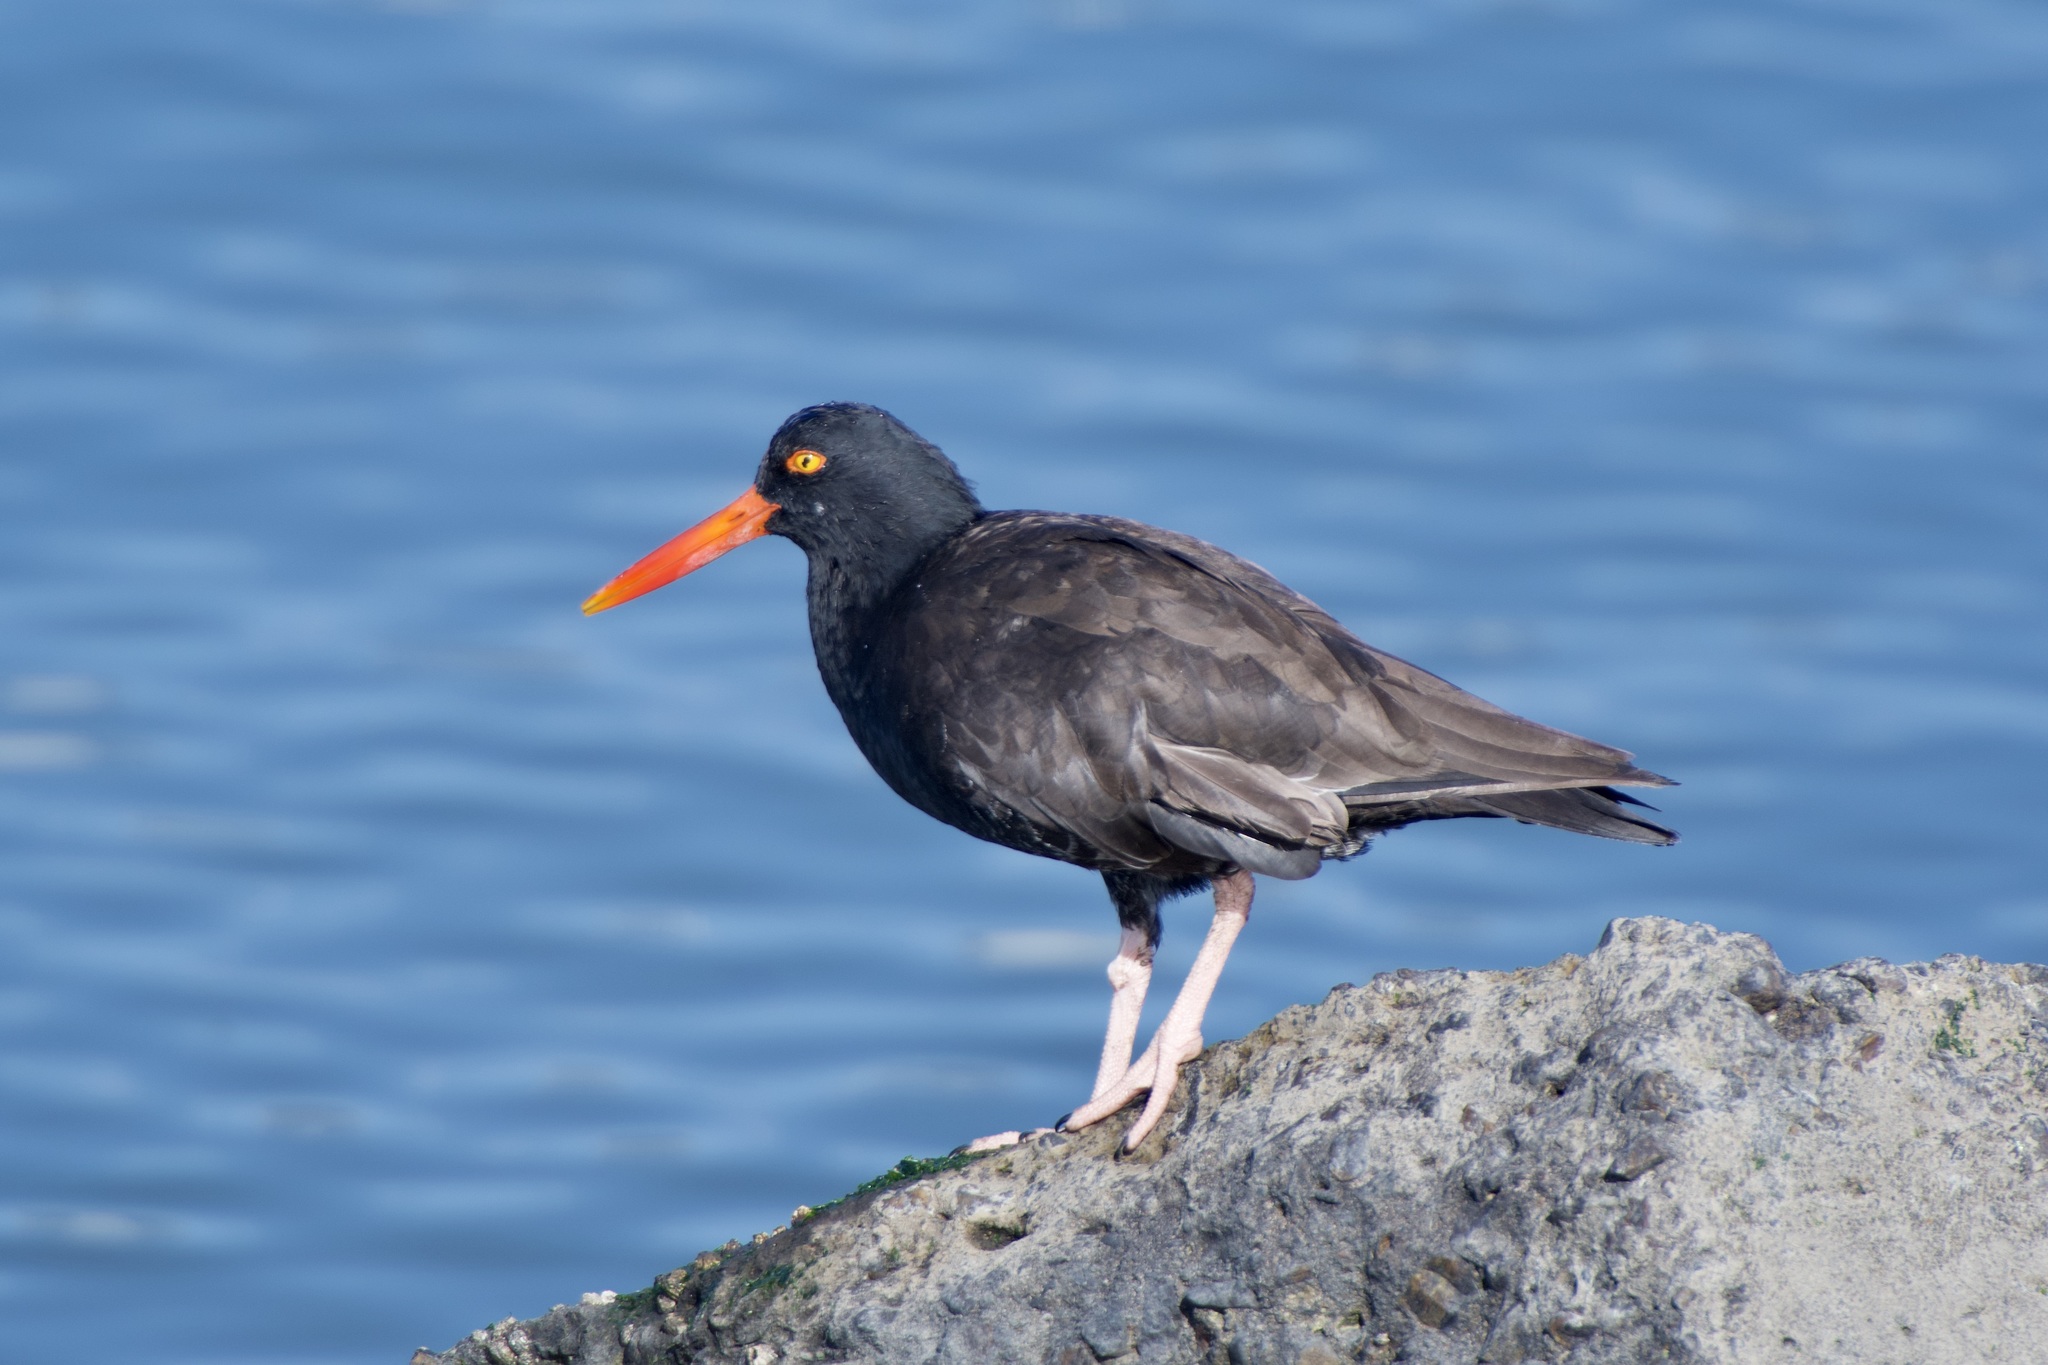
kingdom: Animalia
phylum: Chordata
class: Aves
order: Charadriiformes
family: Haematopodidae
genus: Haematopus
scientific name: Haematopus bachmani
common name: Black oystercatcher
